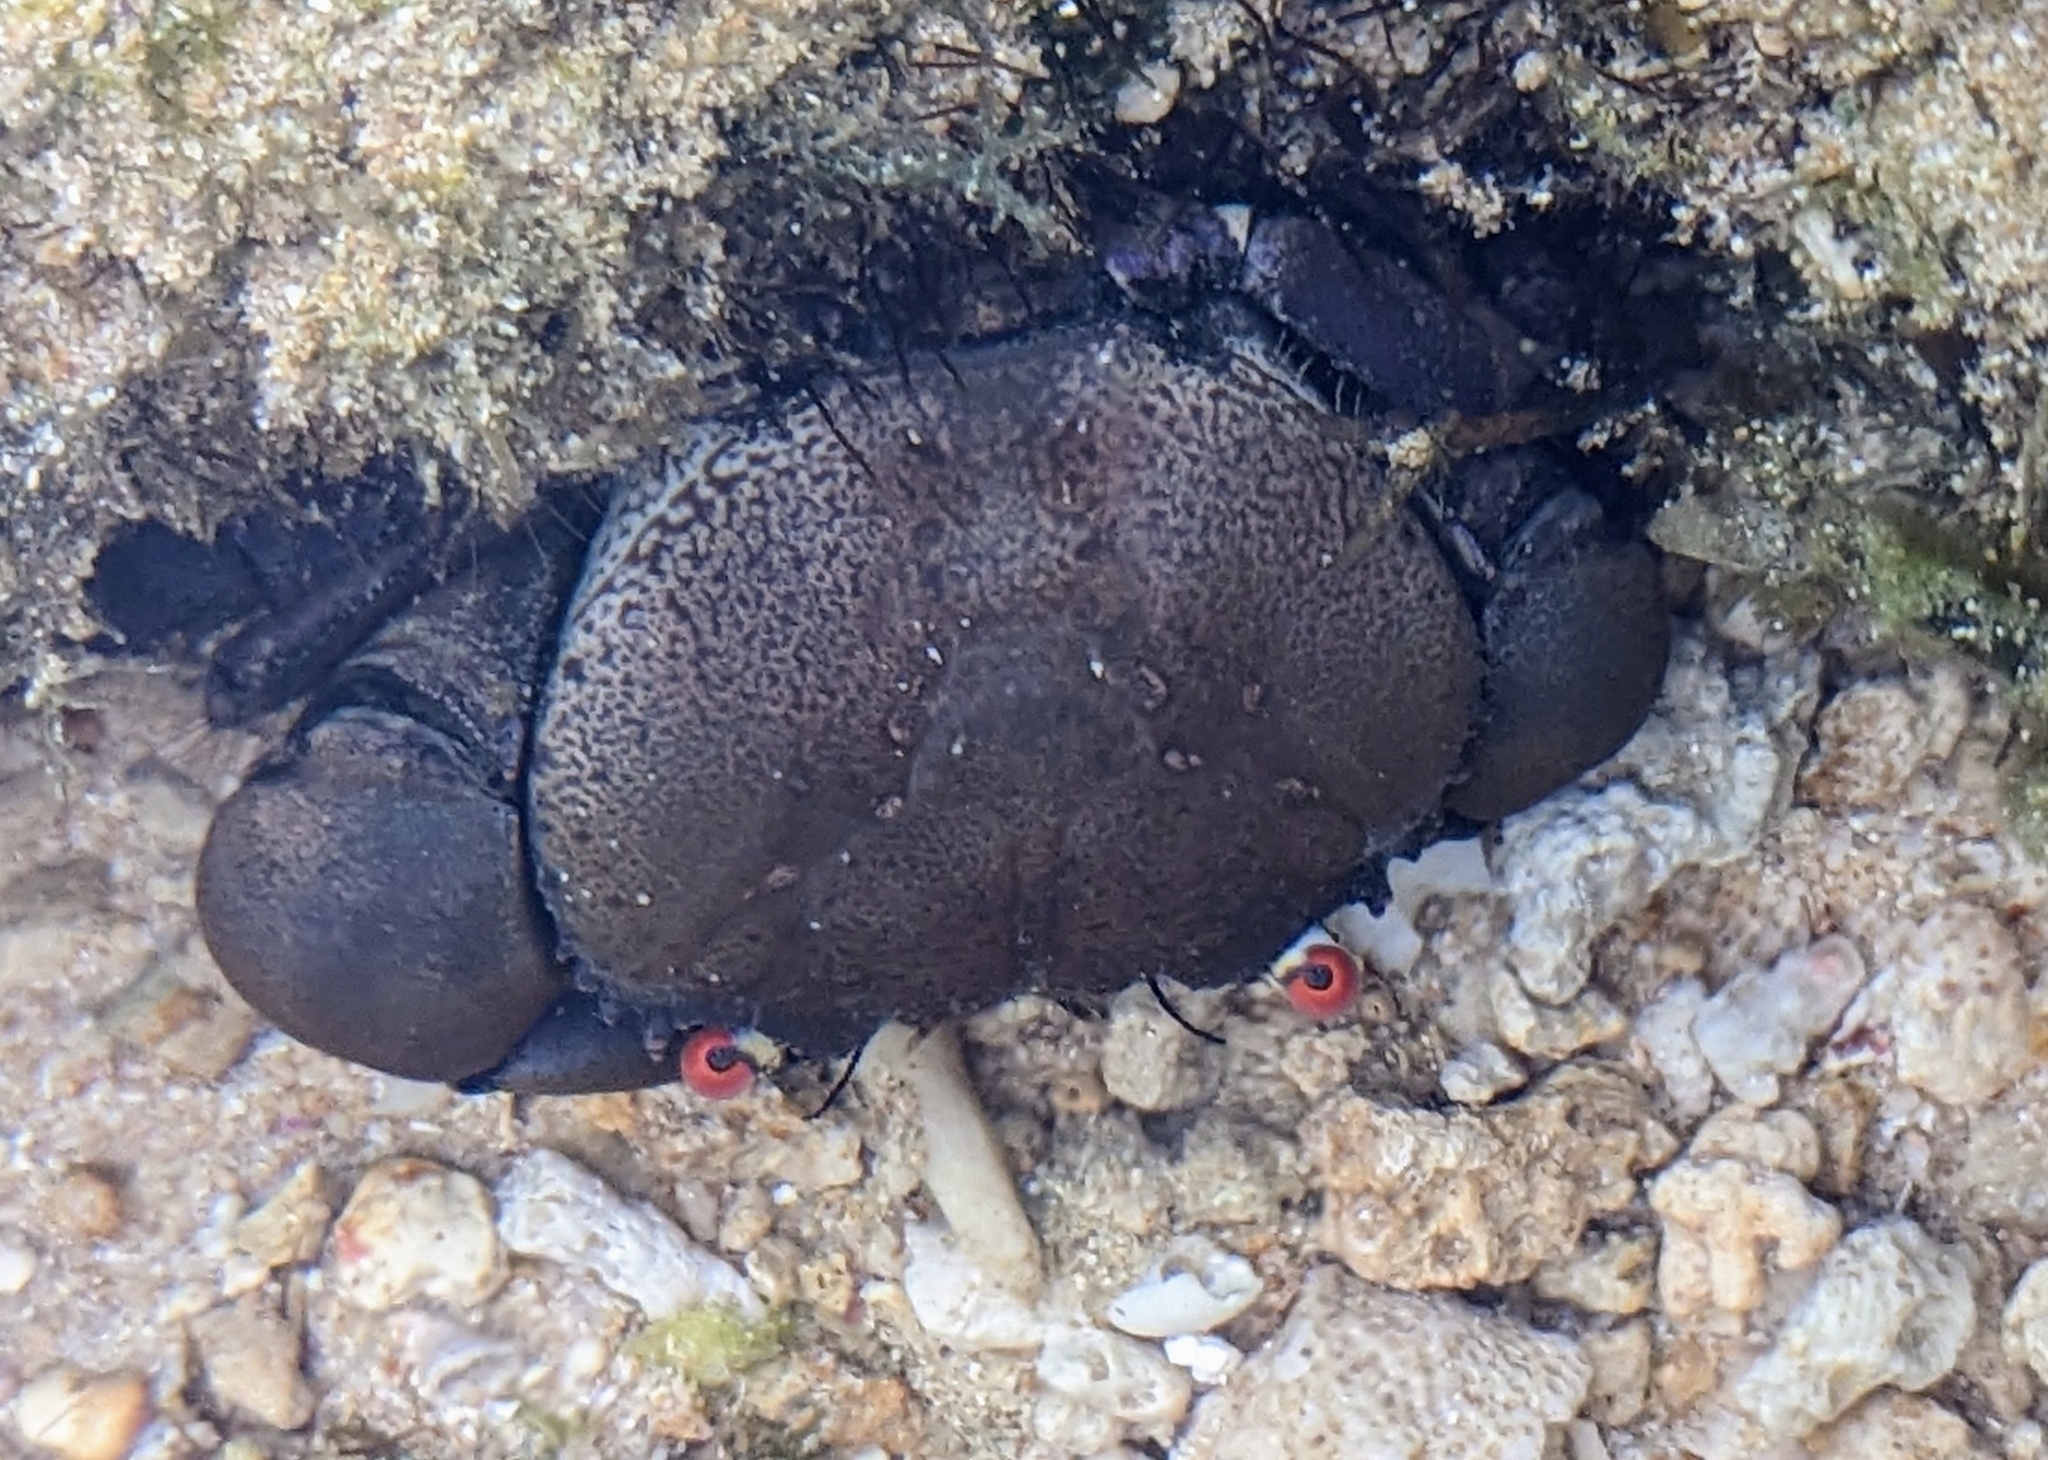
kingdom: Animalia
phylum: Arthropoda
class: Malacostraca
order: Decapoda
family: Eriphiidae
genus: Eriphia
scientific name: Eriphia sebana
